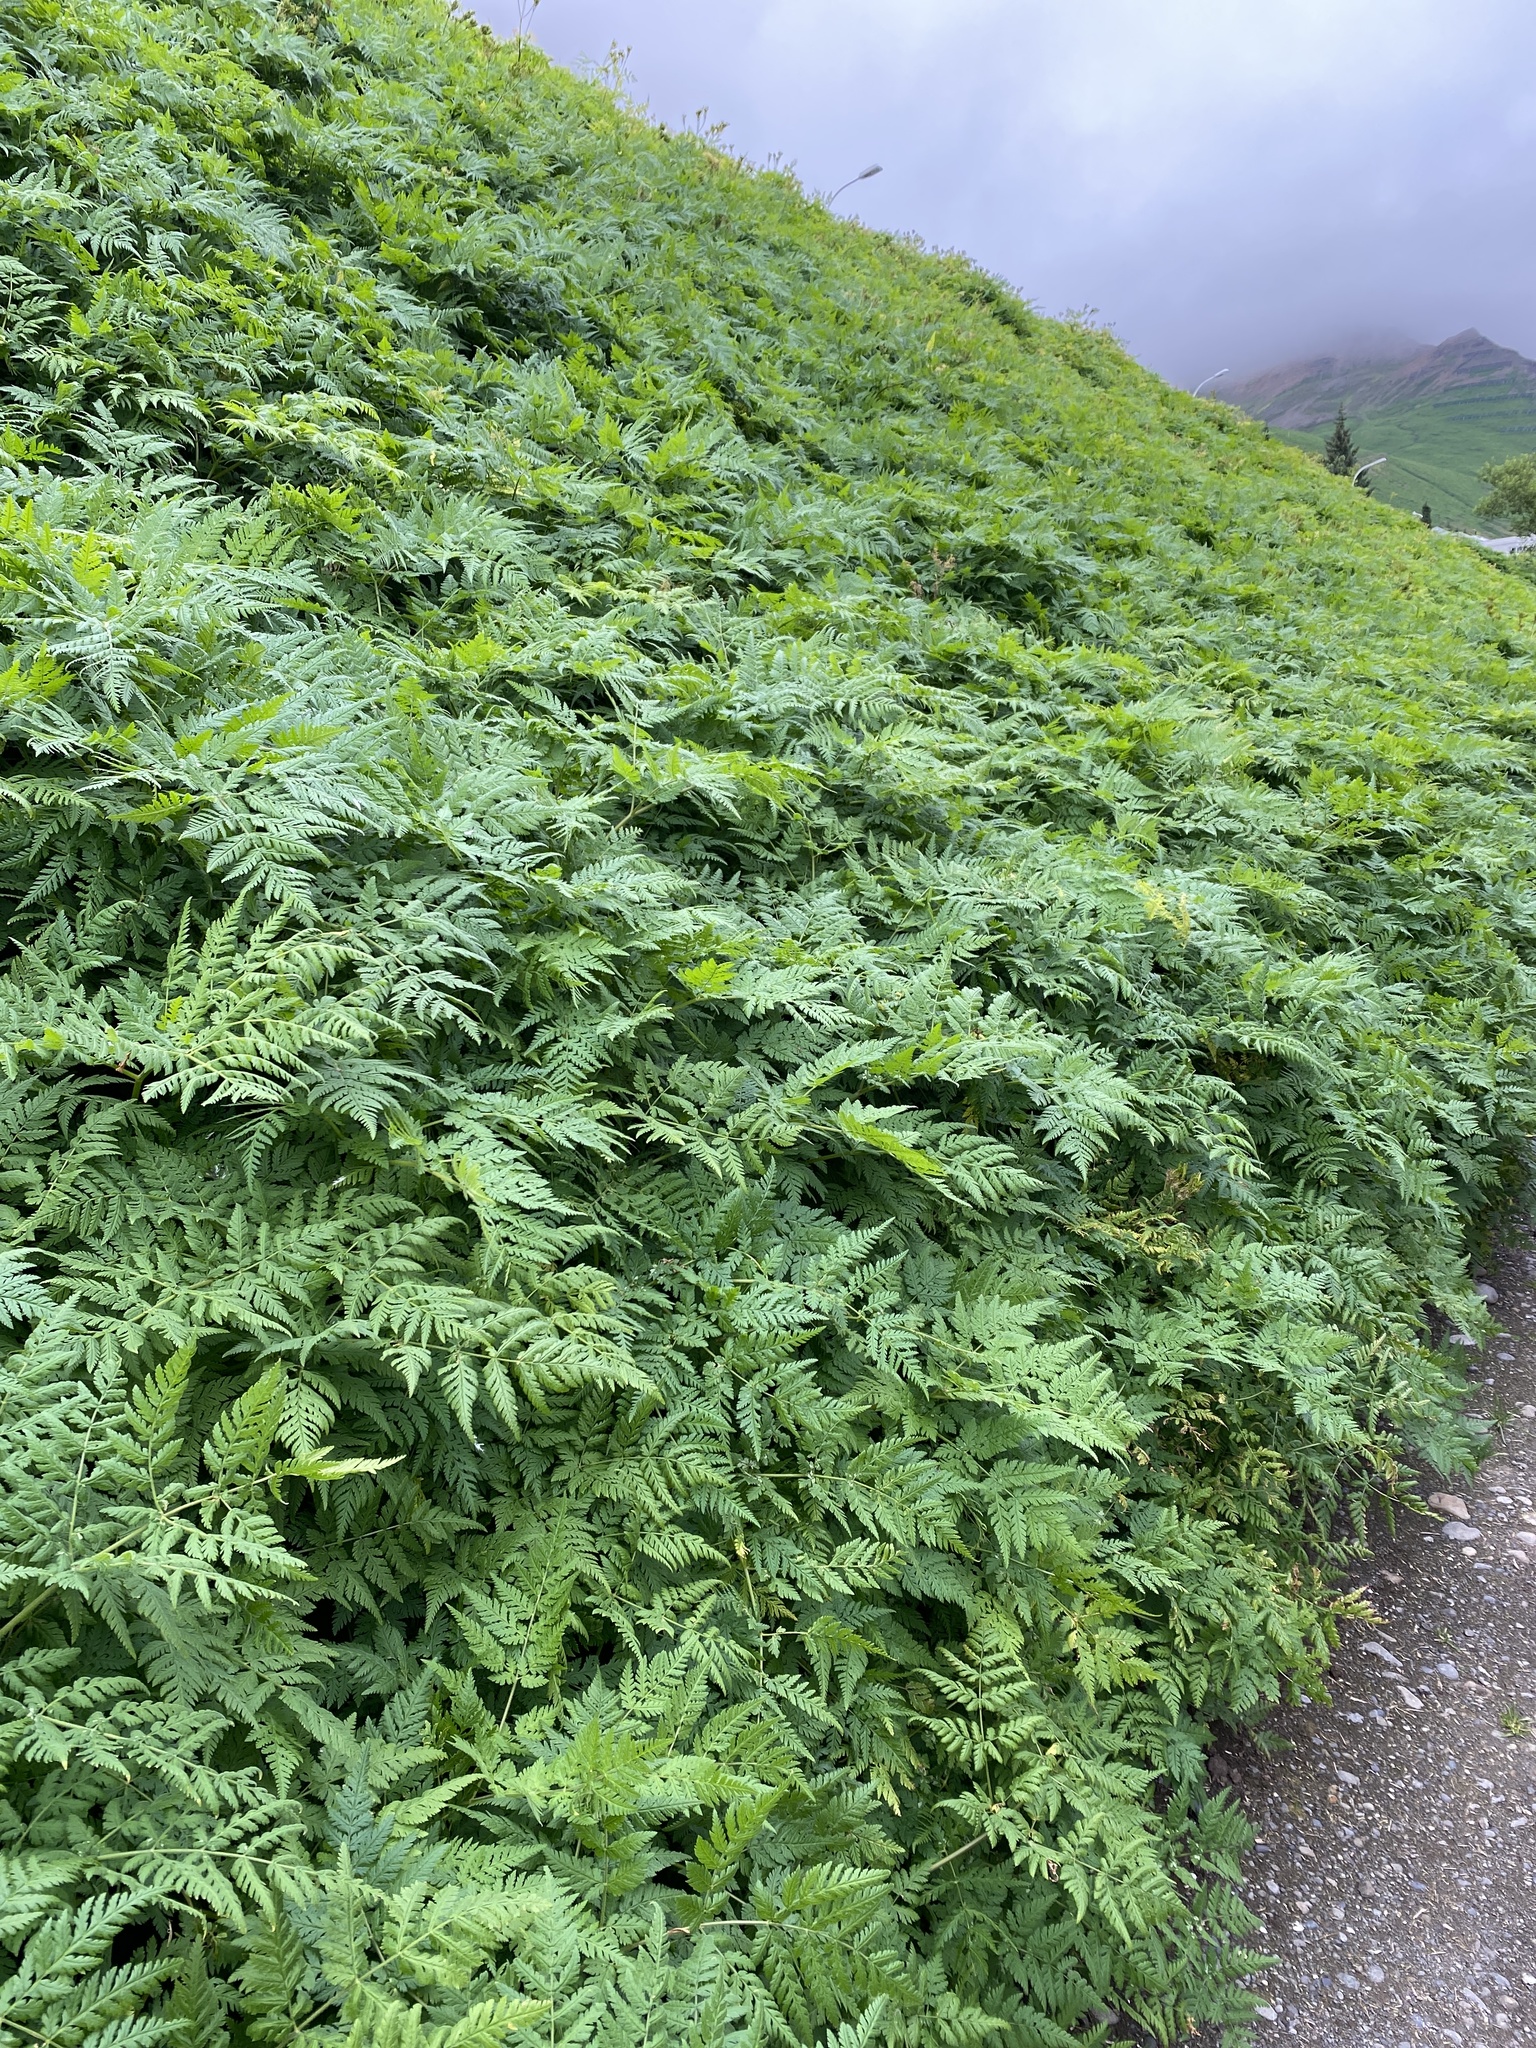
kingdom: Plantae
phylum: Tracheophyta
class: Magnoliopsida
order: Apiales
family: Apiaceae
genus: Myrrhis
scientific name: Myrrhis odorata
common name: Sweet cicely
